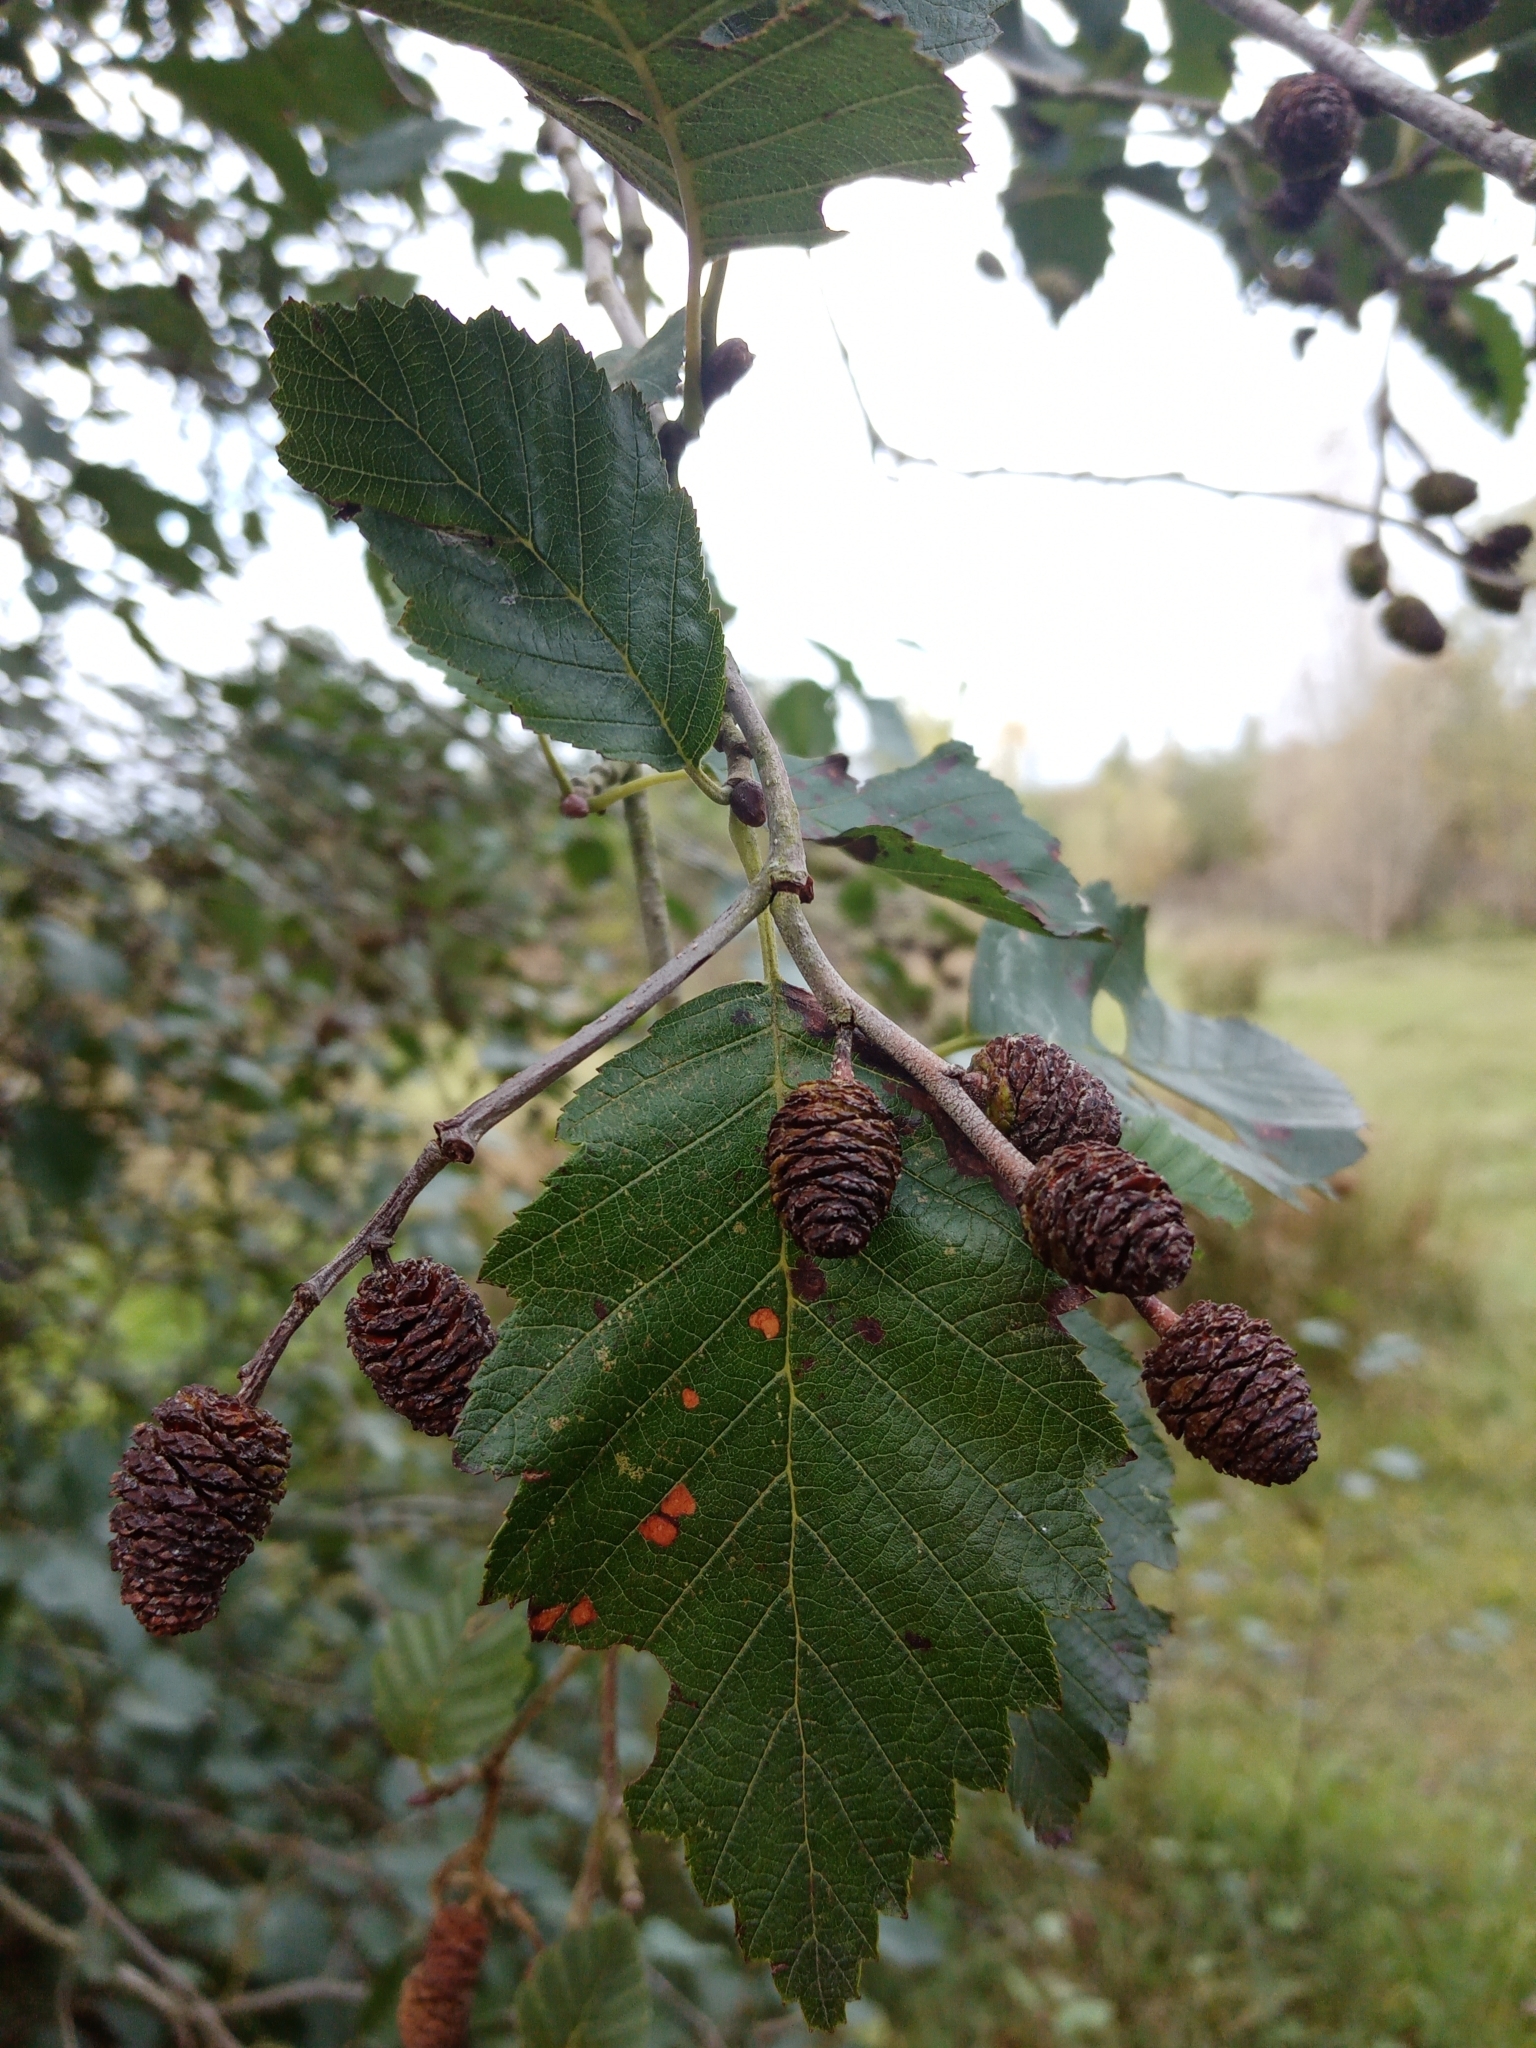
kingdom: Plantae
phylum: Tracheophyta
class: Magnoliopsida
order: Fagales
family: Betulaceae
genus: Alnus
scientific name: Alnus incana
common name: Grey alder
